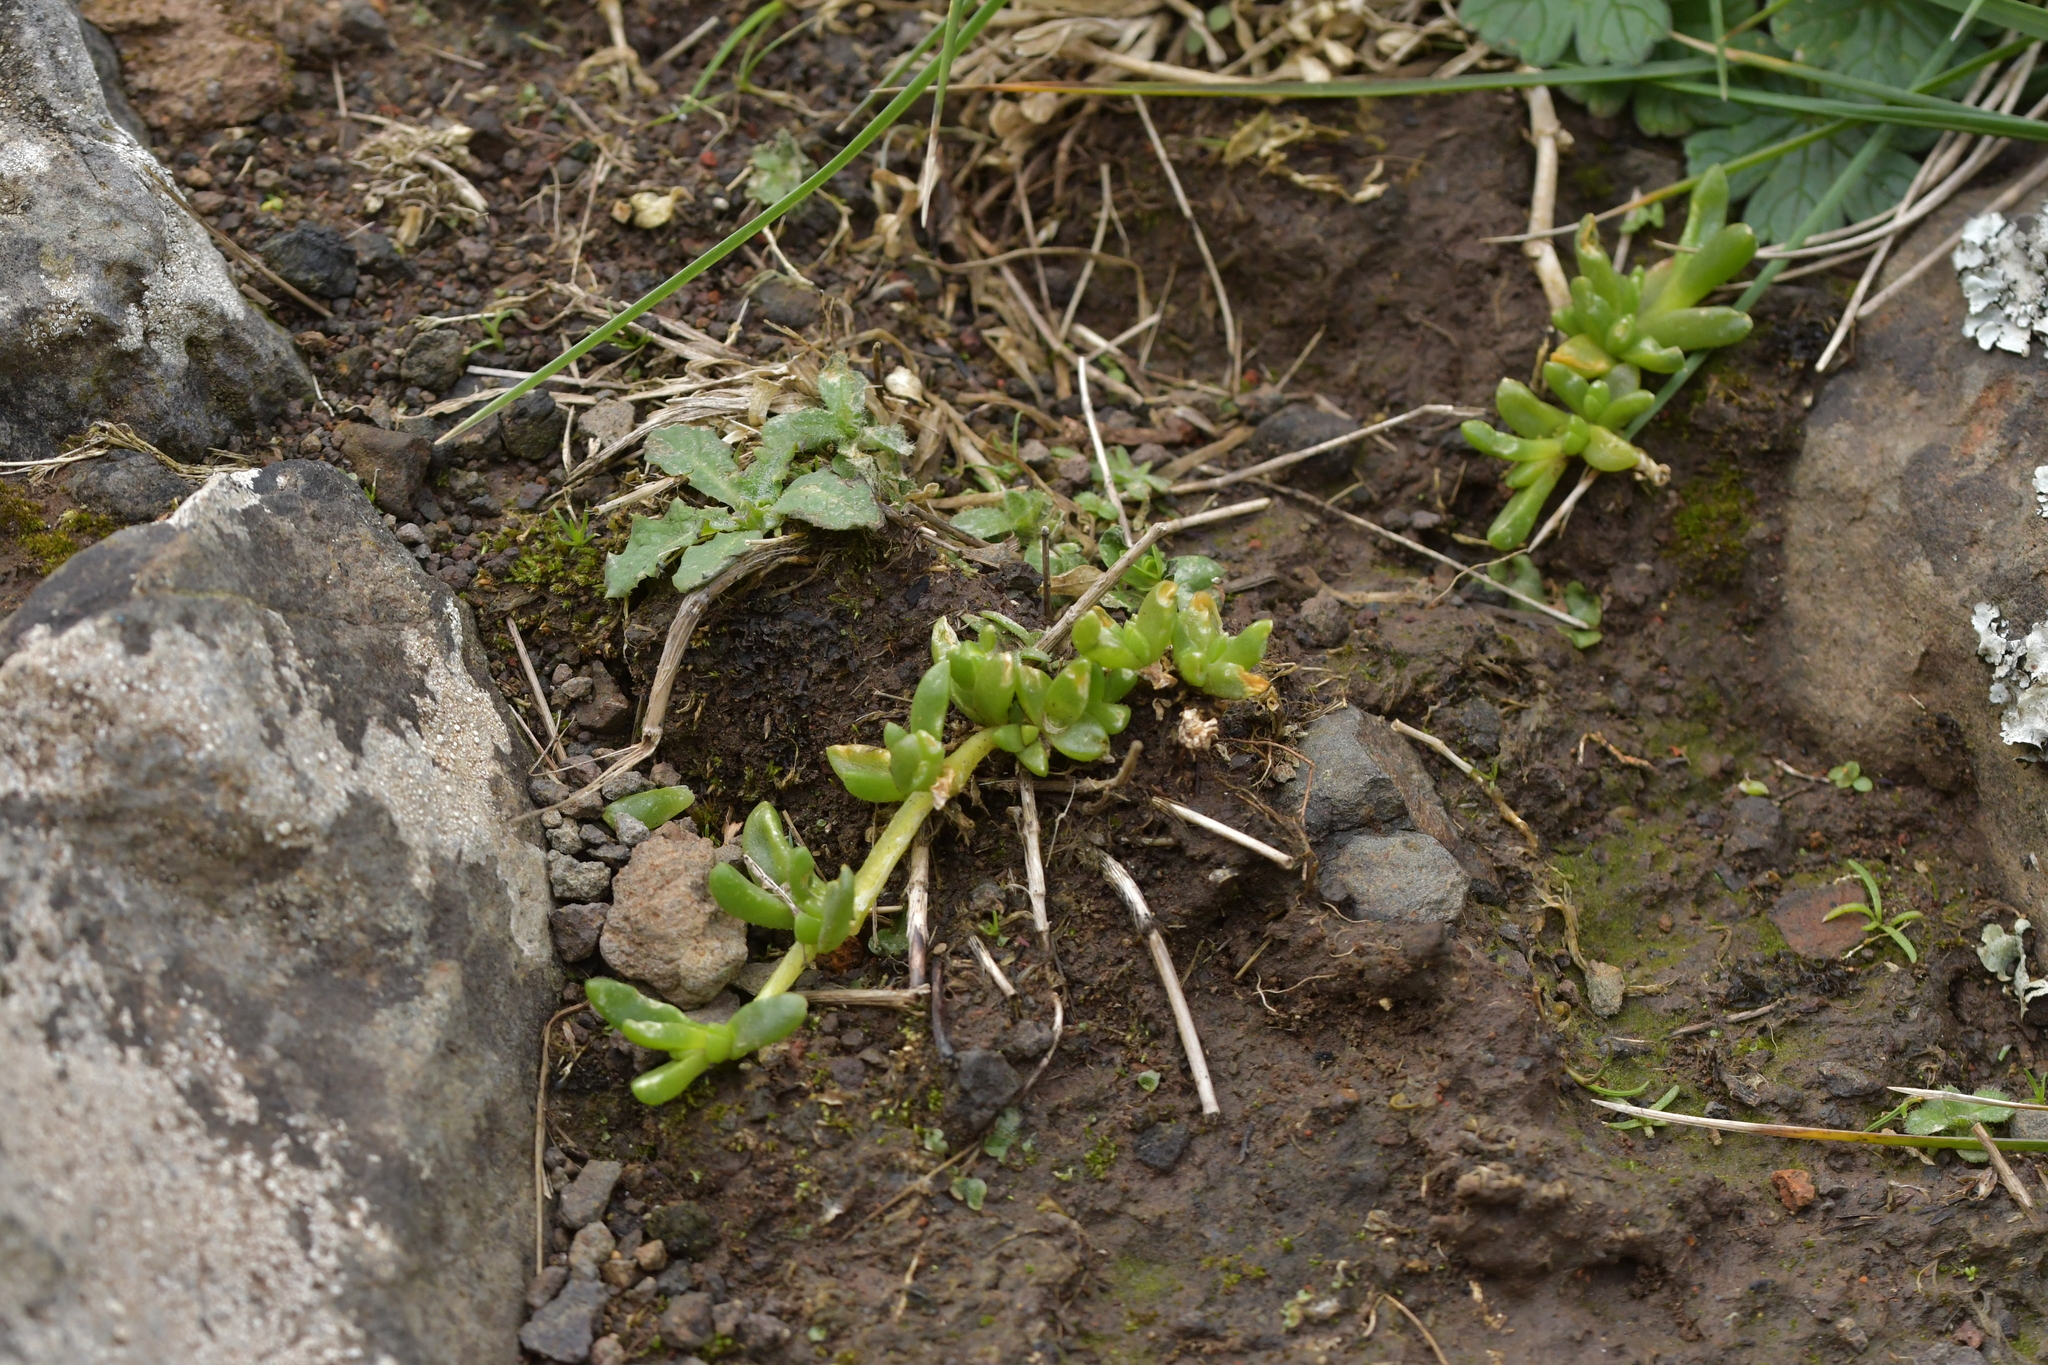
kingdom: Plantae
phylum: Tracheophyta
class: Magnoliopsida
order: Caryophyllales
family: Aizoaceae
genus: Disphyma
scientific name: Disphyma papillatum
